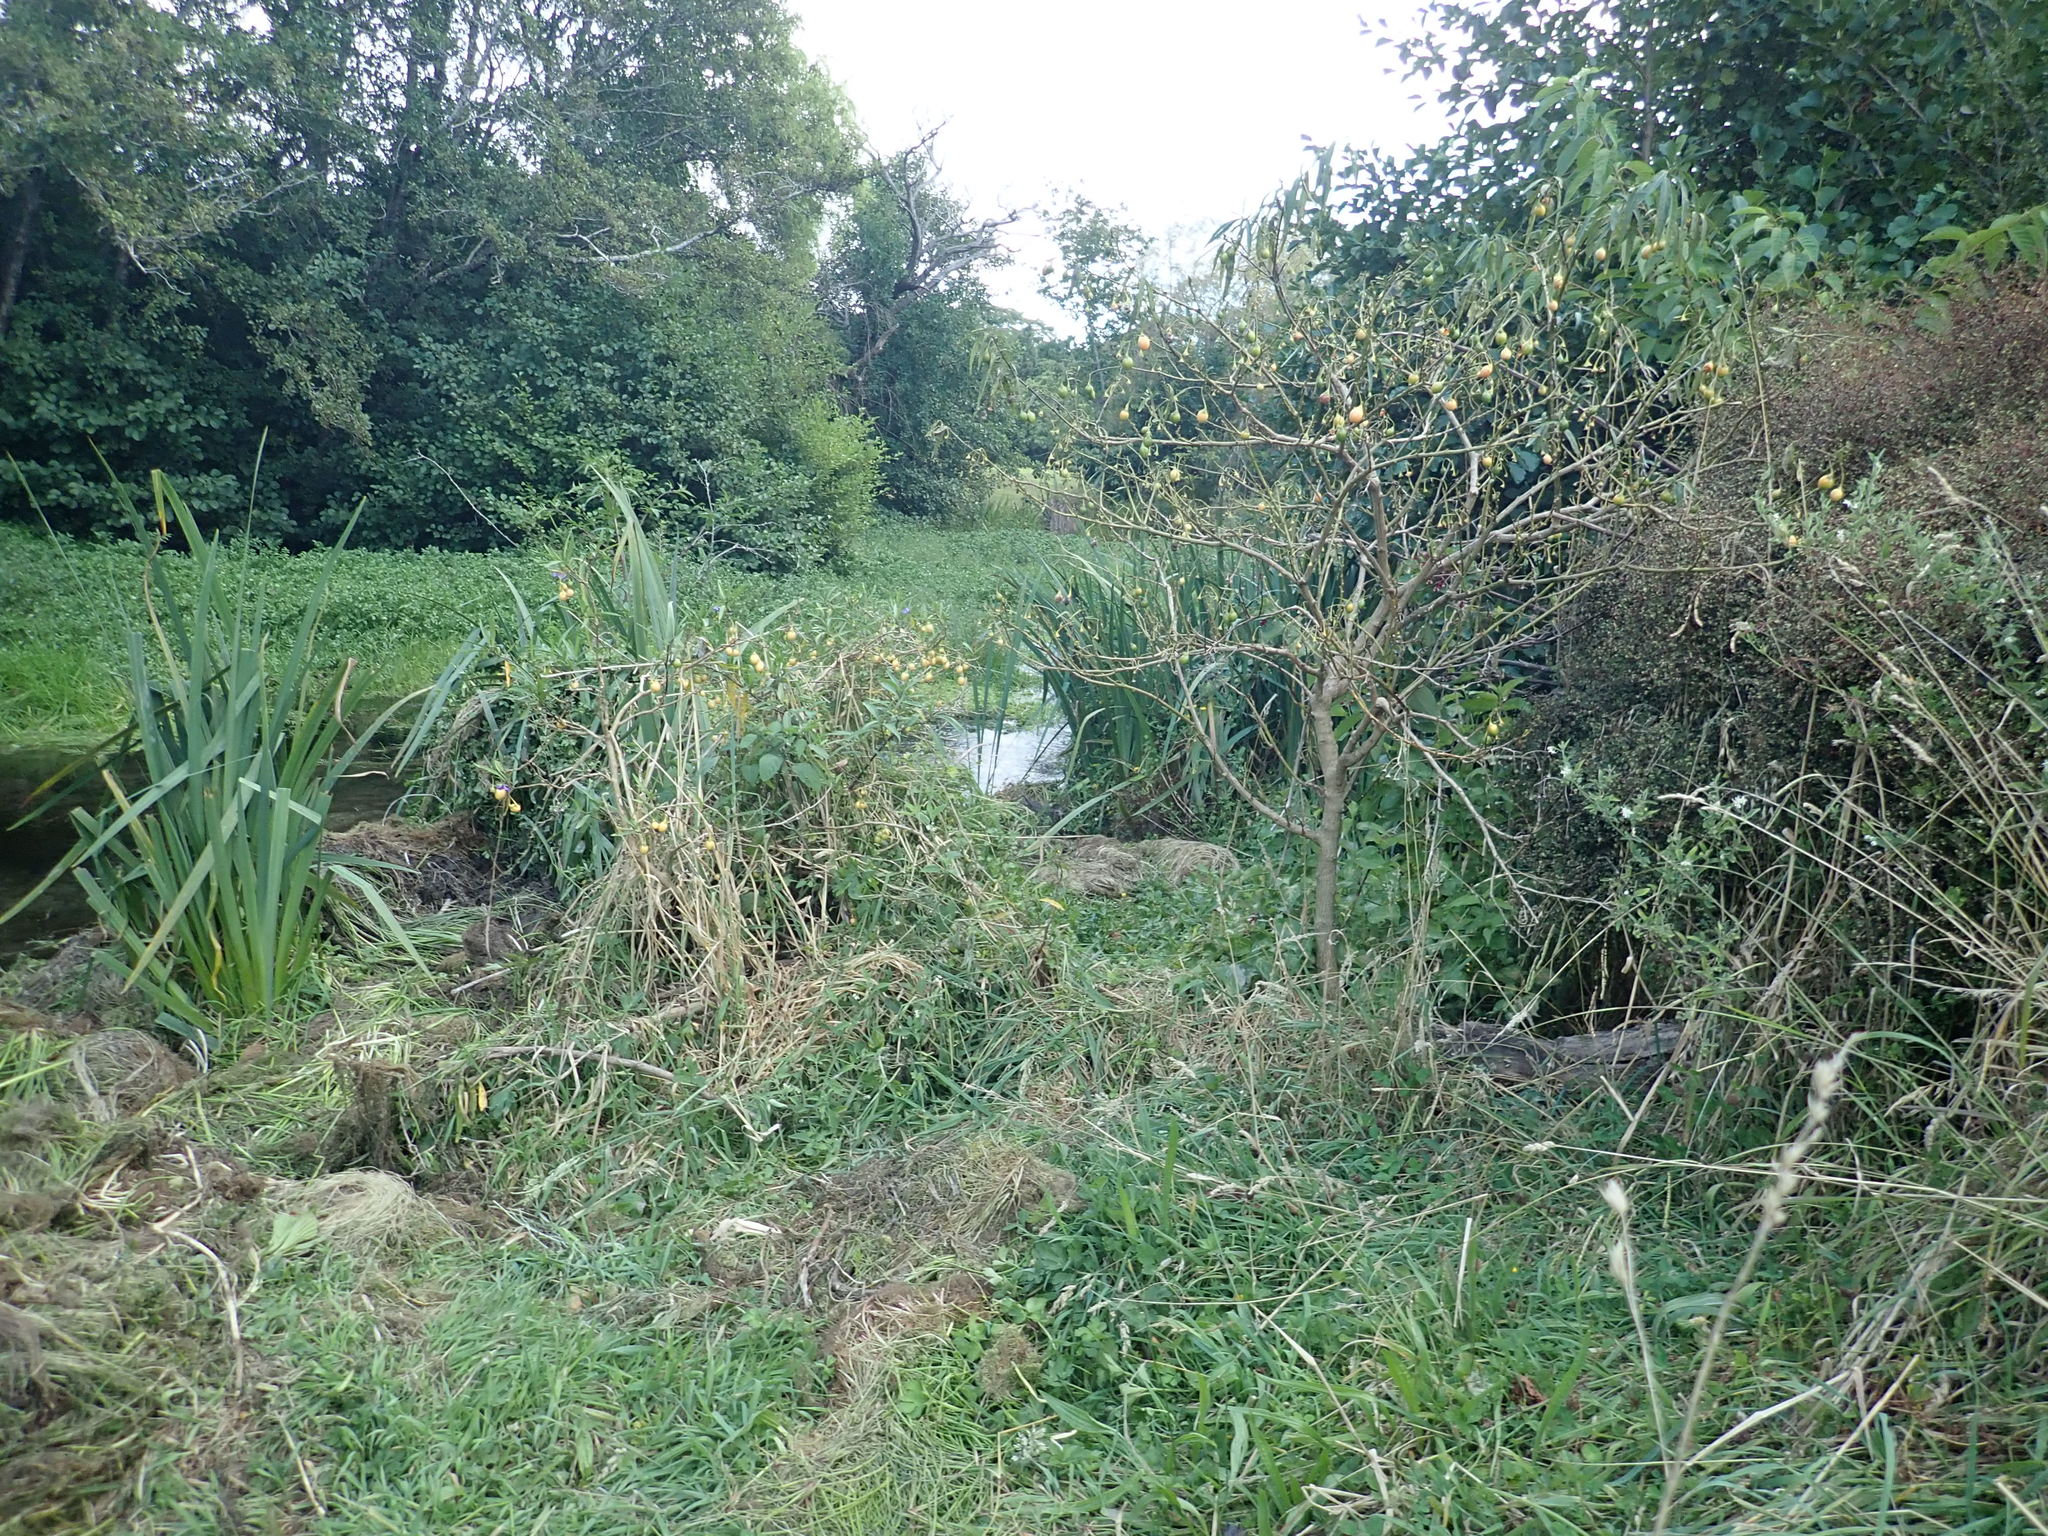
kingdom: Plantae
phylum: Tracheophyta
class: Magnoliopsida
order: Solanales
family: Solanaceae
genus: Solanum
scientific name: Solanum laciniatum
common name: Kangaroo-apple
